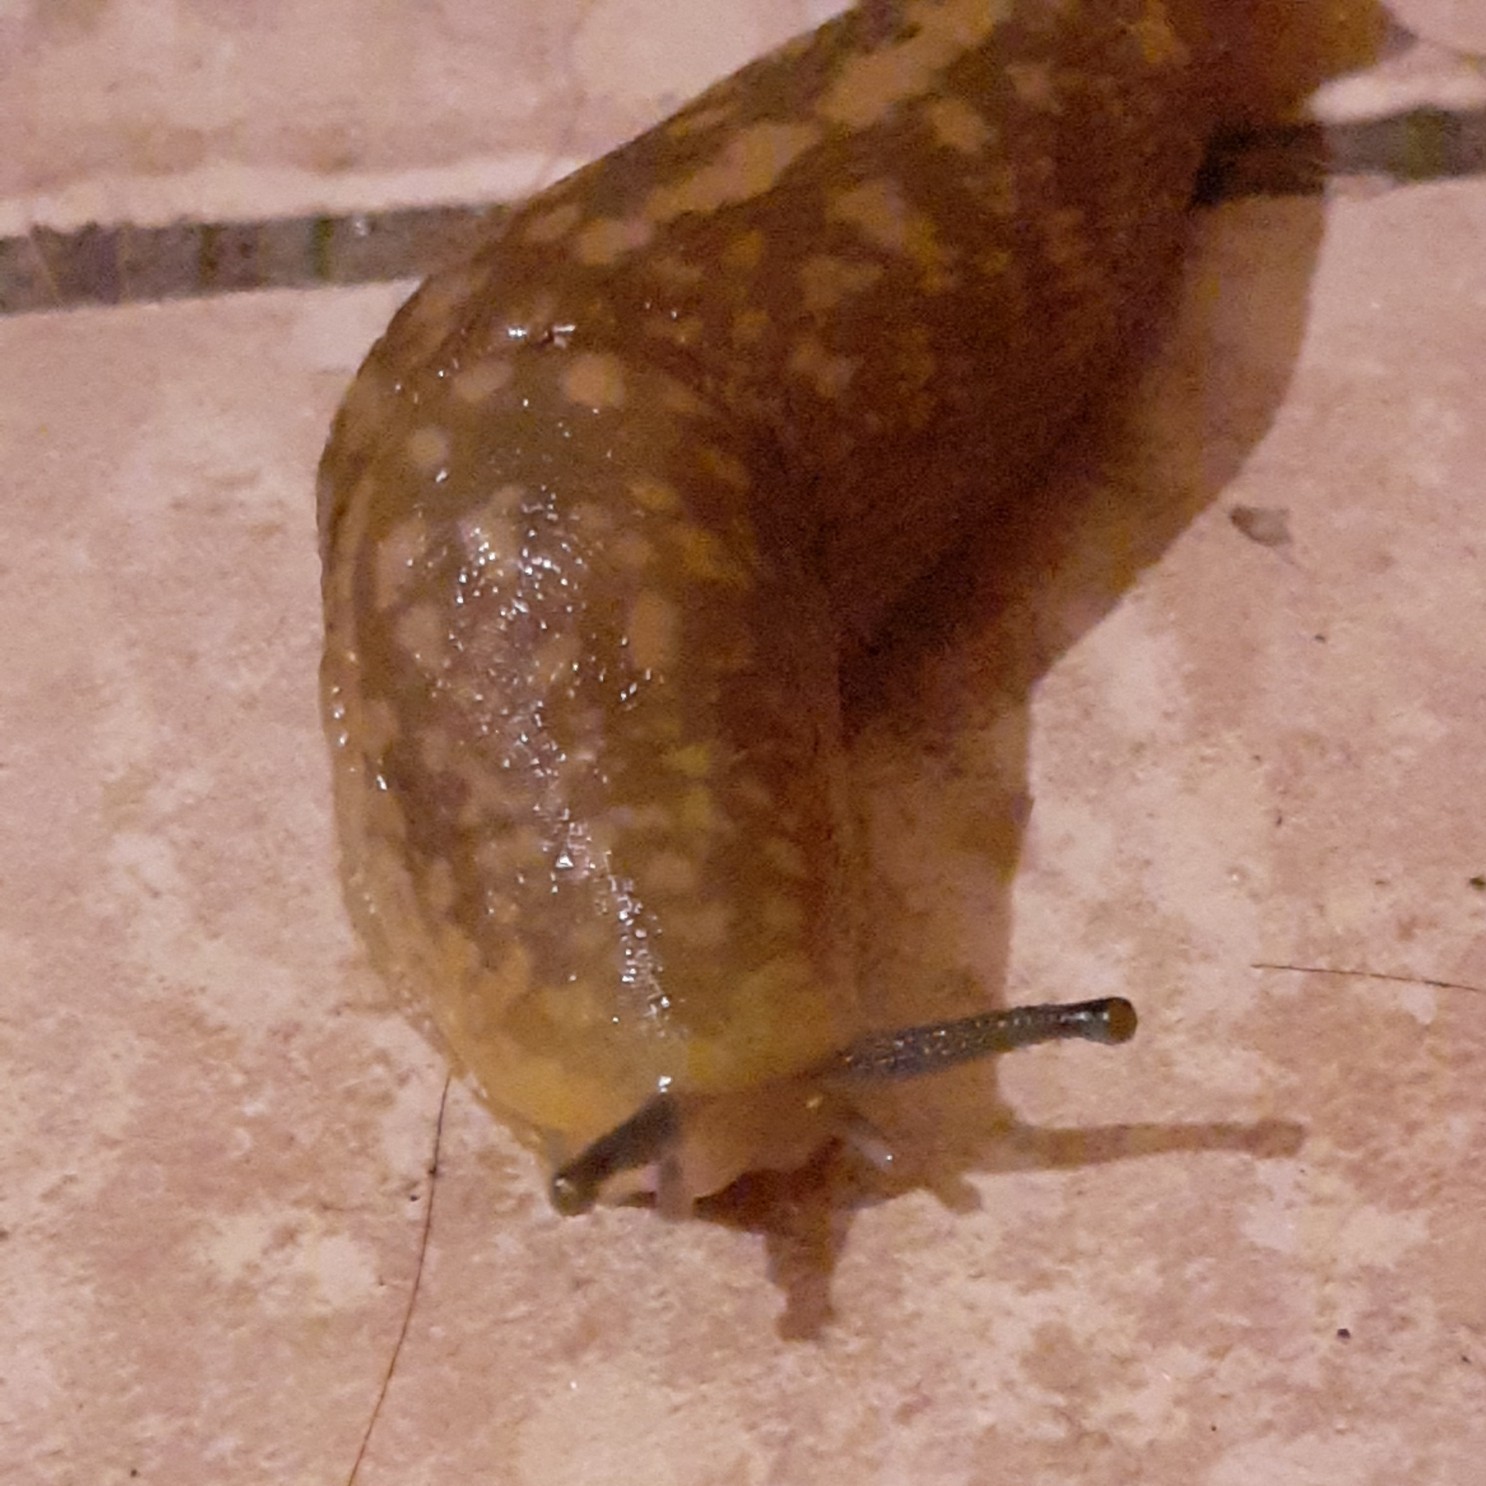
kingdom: Animalia
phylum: Mollusca
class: Gastropoda
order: Stylommatophora
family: Limacidae
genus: Limacus
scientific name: Limacus flavus
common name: Yellow gardenslug
